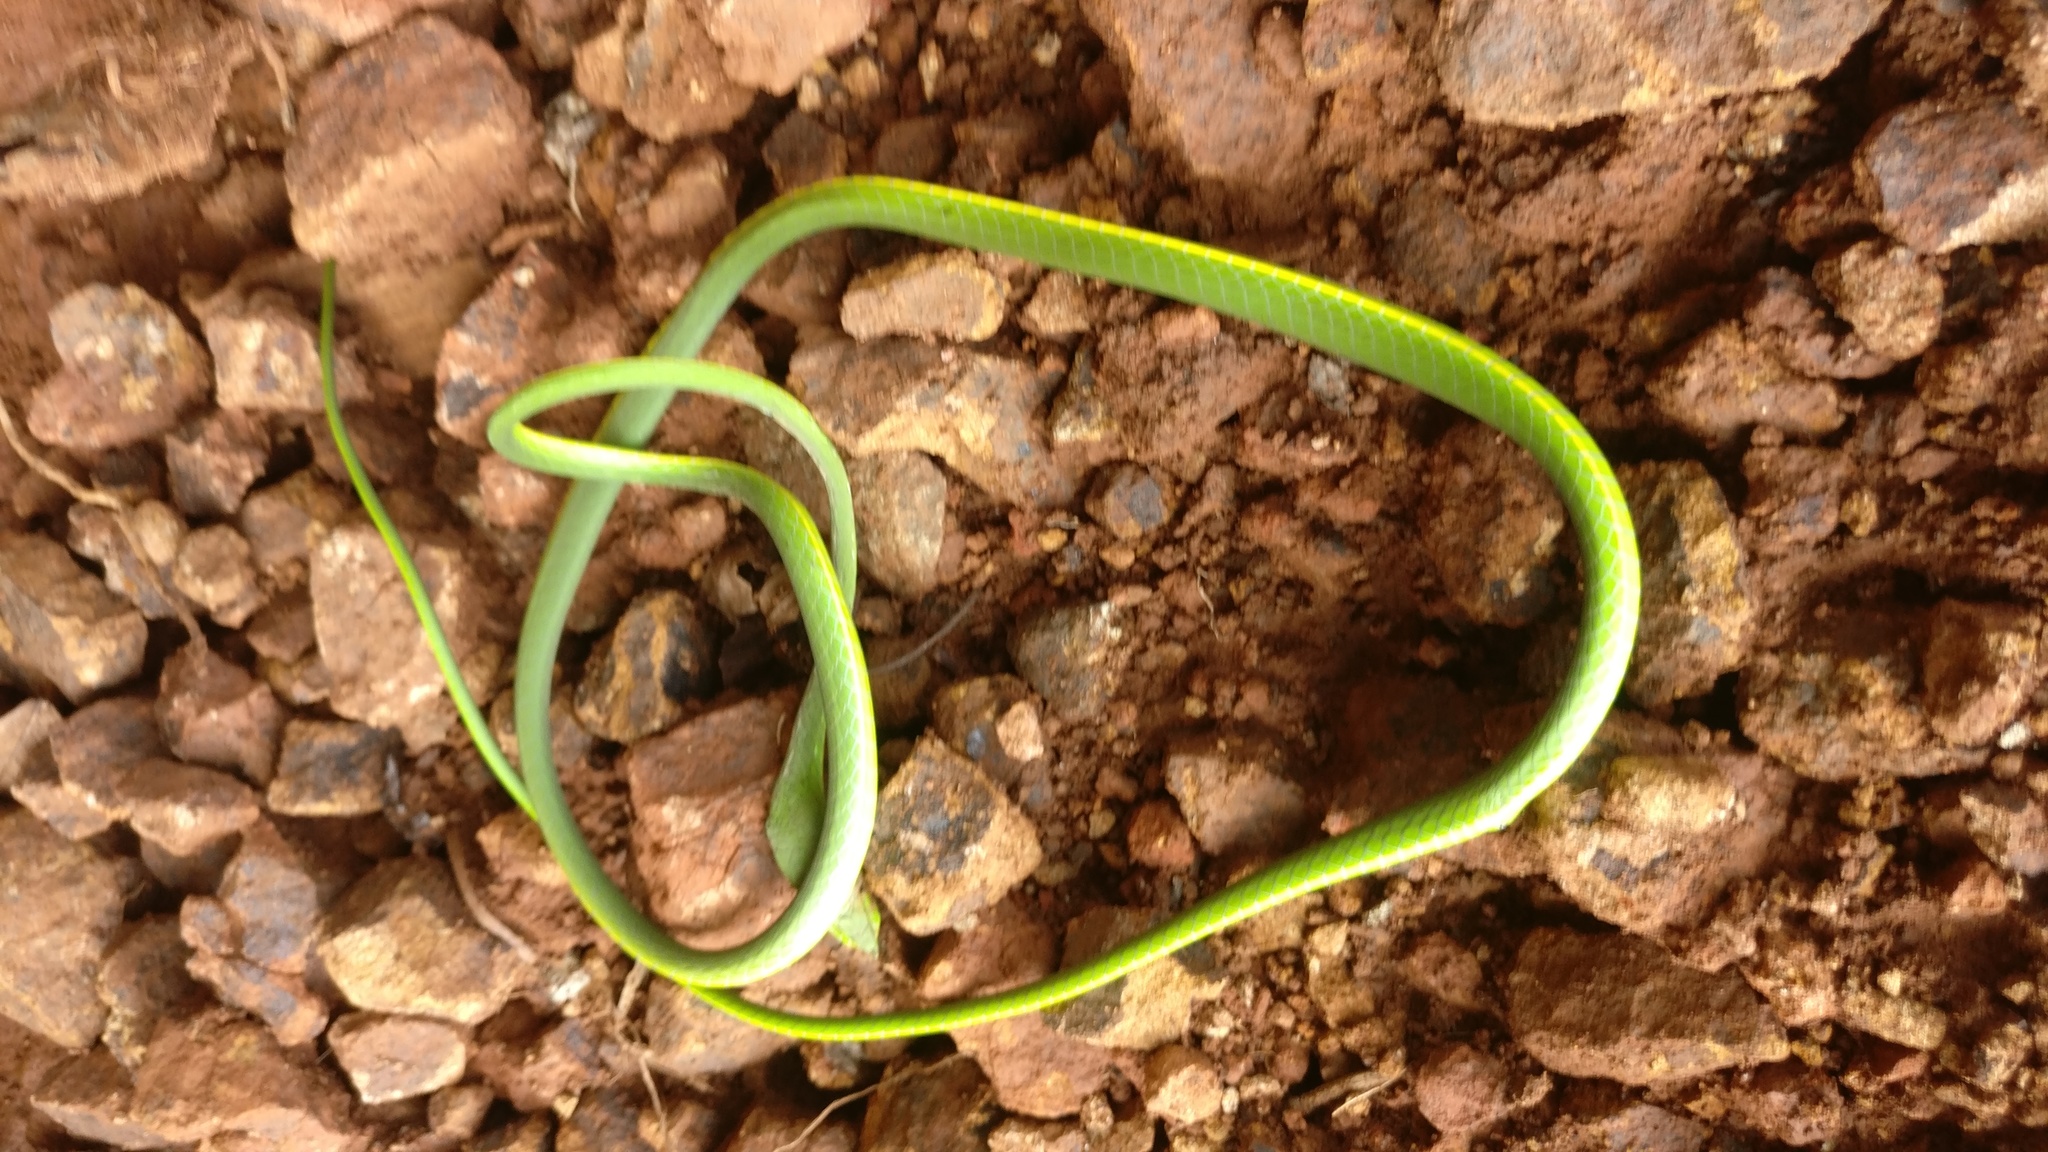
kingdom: Animalia
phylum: Chordata
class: Squamata
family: Colubridae
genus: Ahaetulla
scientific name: Ahaetulla borealis
